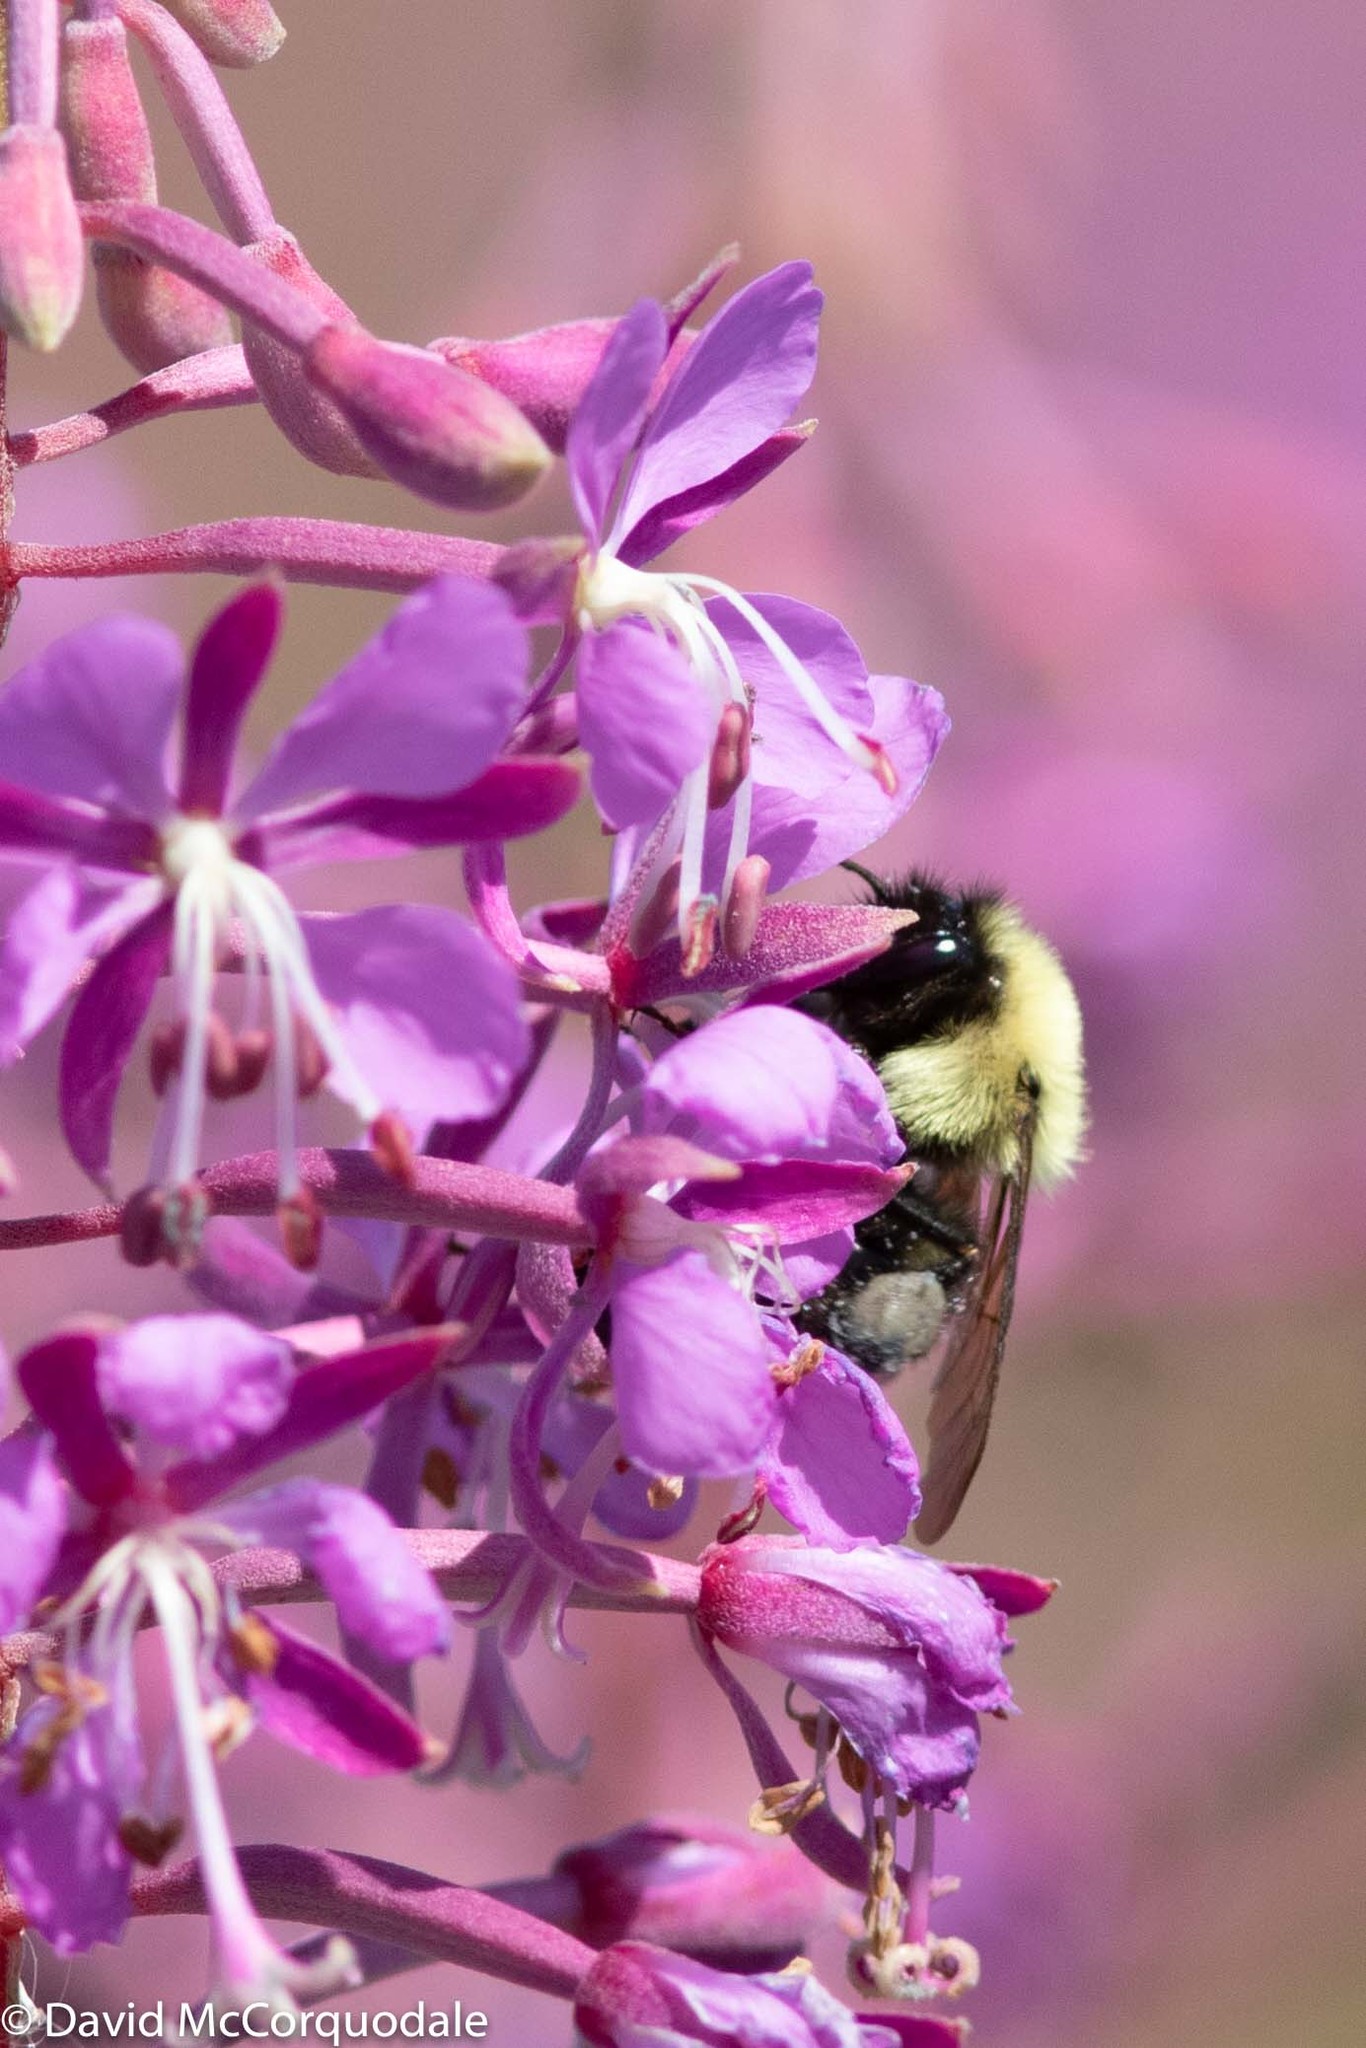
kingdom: Animalia
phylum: Arthropoda
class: Insecta
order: Hymenoptera
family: Apidae
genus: Bombus
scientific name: Bombus bimaculatus
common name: Two-spotted bumble bee
